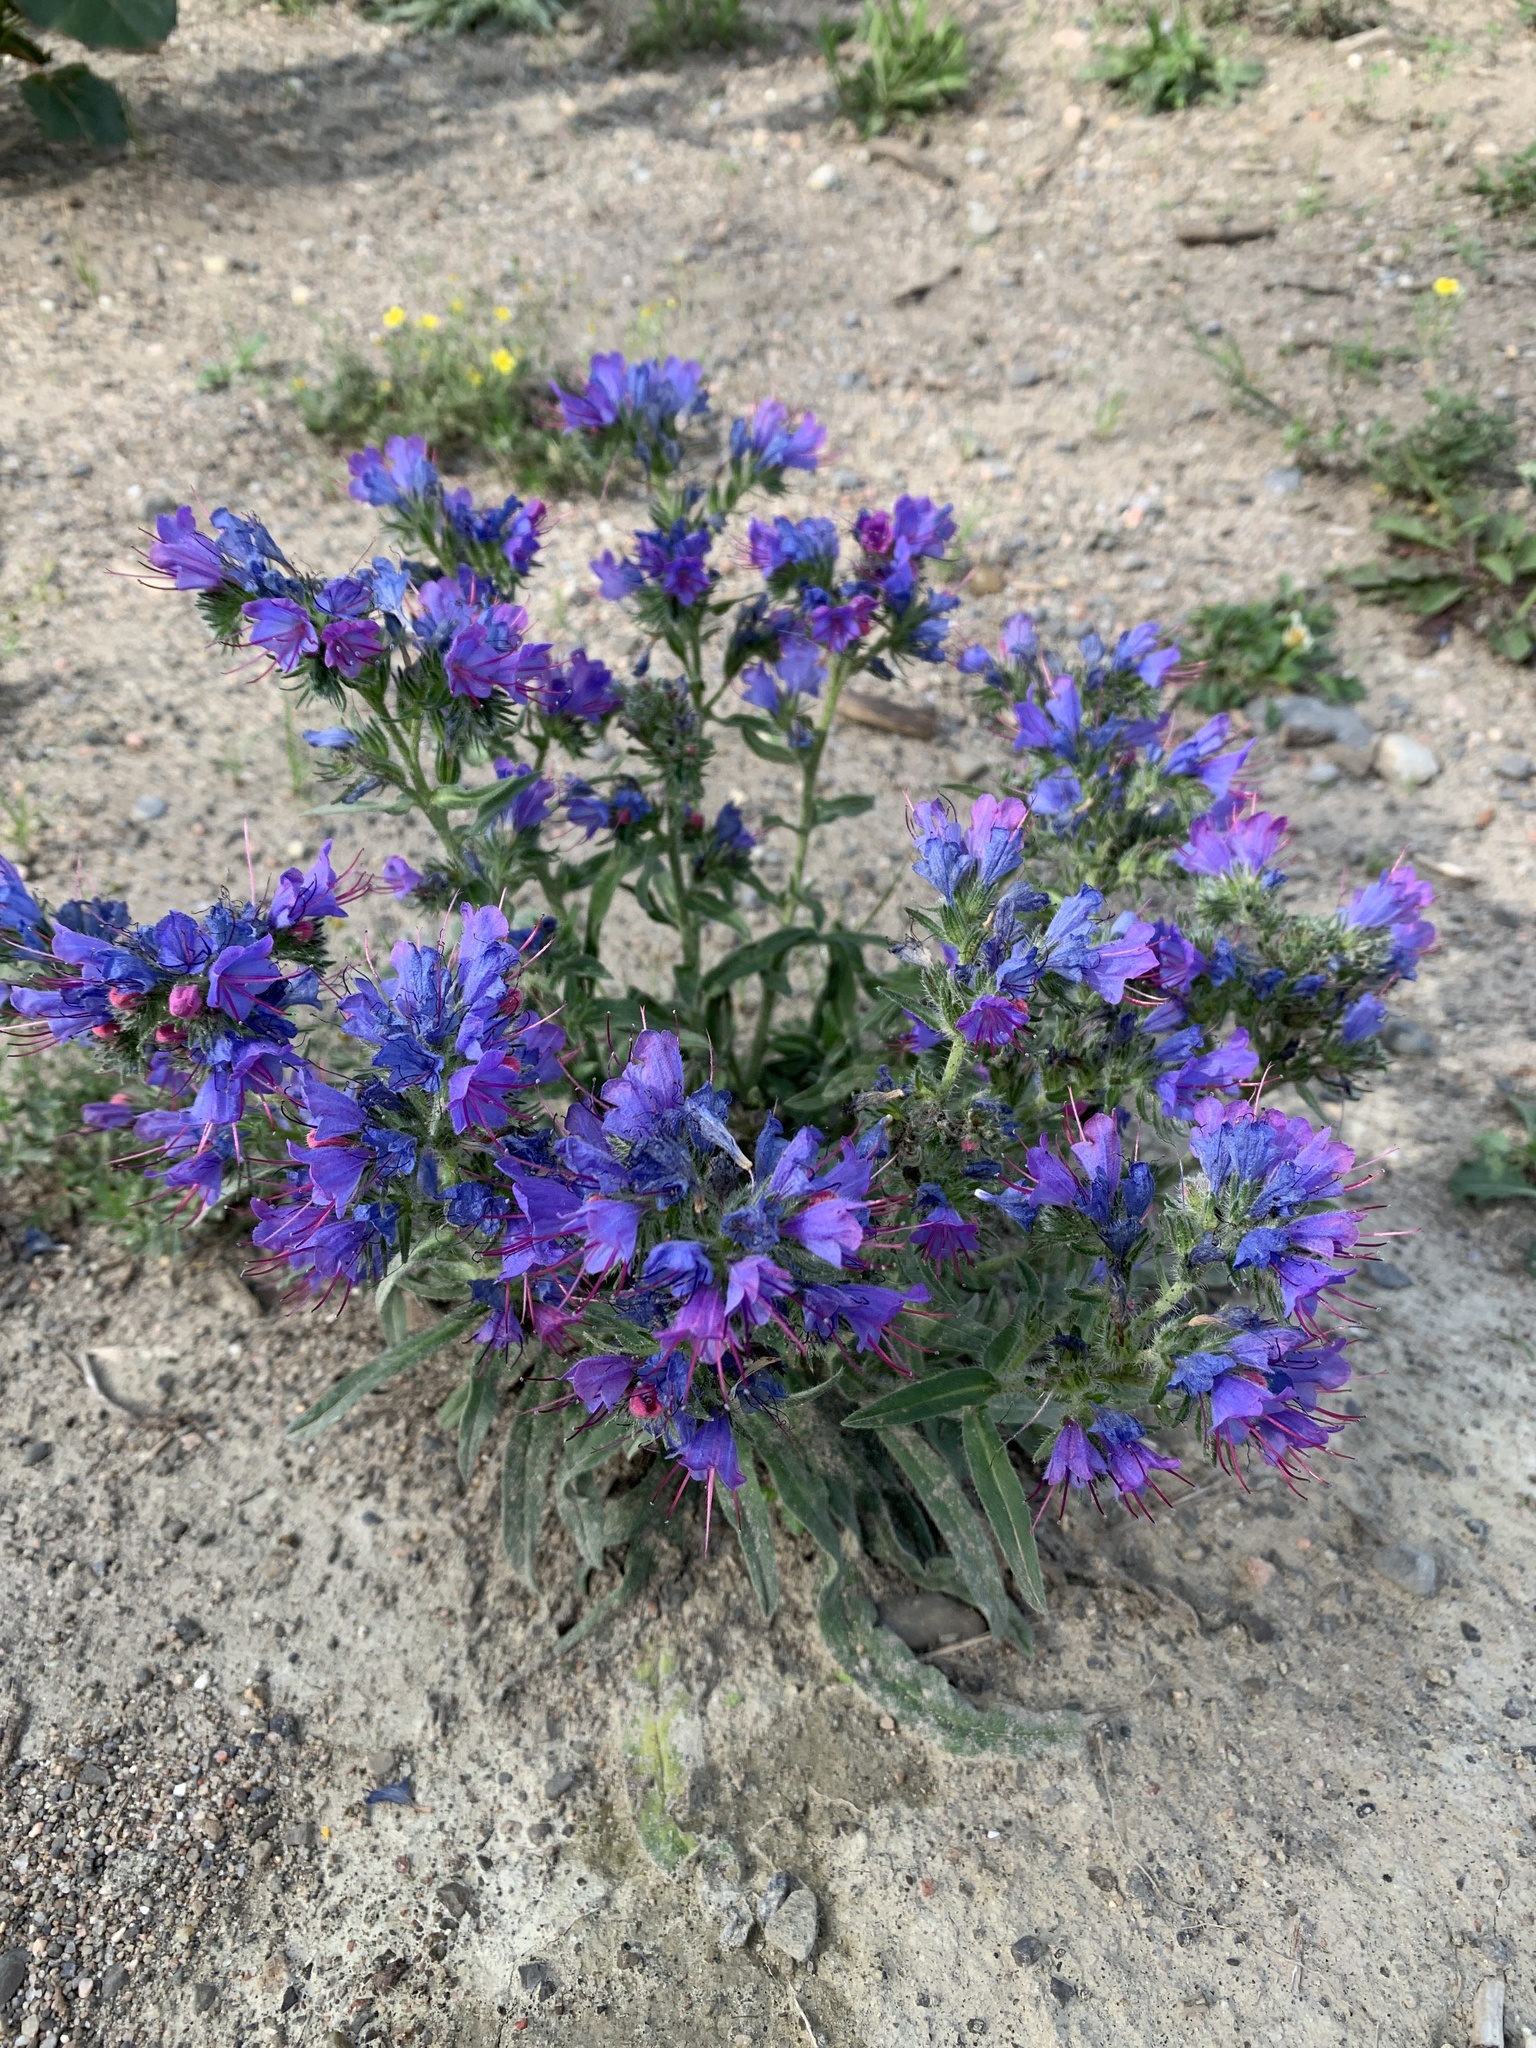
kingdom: Plantae
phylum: Tracheophyta
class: Magnoliopsida
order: Boraginales
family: Boraginaceae
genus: Echium
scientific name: Echium vulgare
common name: Common viper's bugloss
